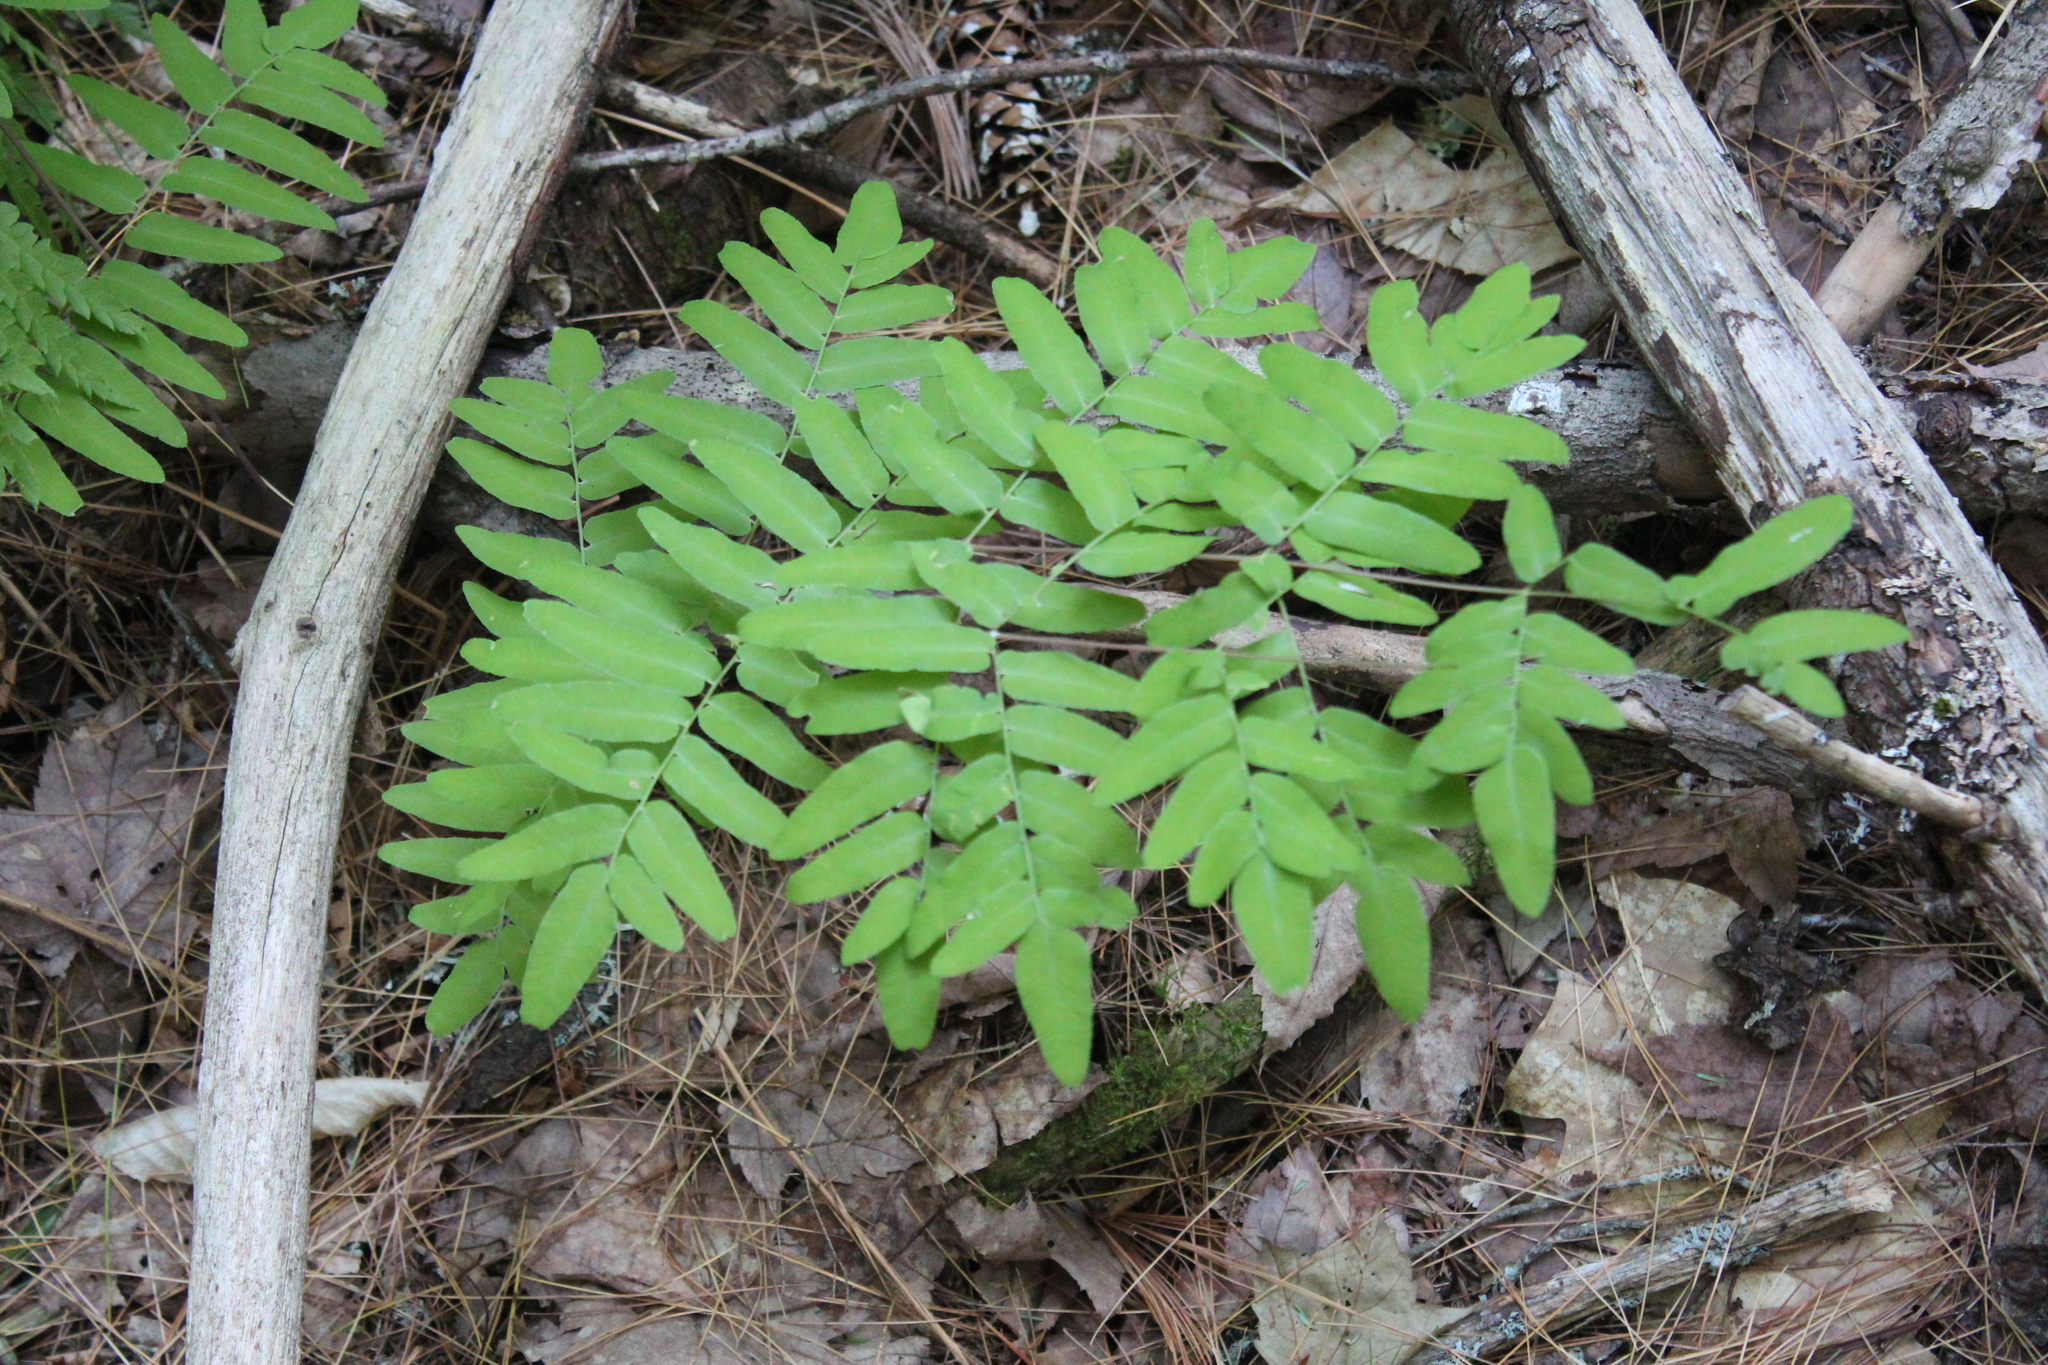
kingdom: Plantae
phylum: Tracheophyta
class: Polypodiopsida
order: Osmundales
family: Osmundaceae
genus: Osmunda
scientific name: Osmunda spectabilis
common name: American royal fern
